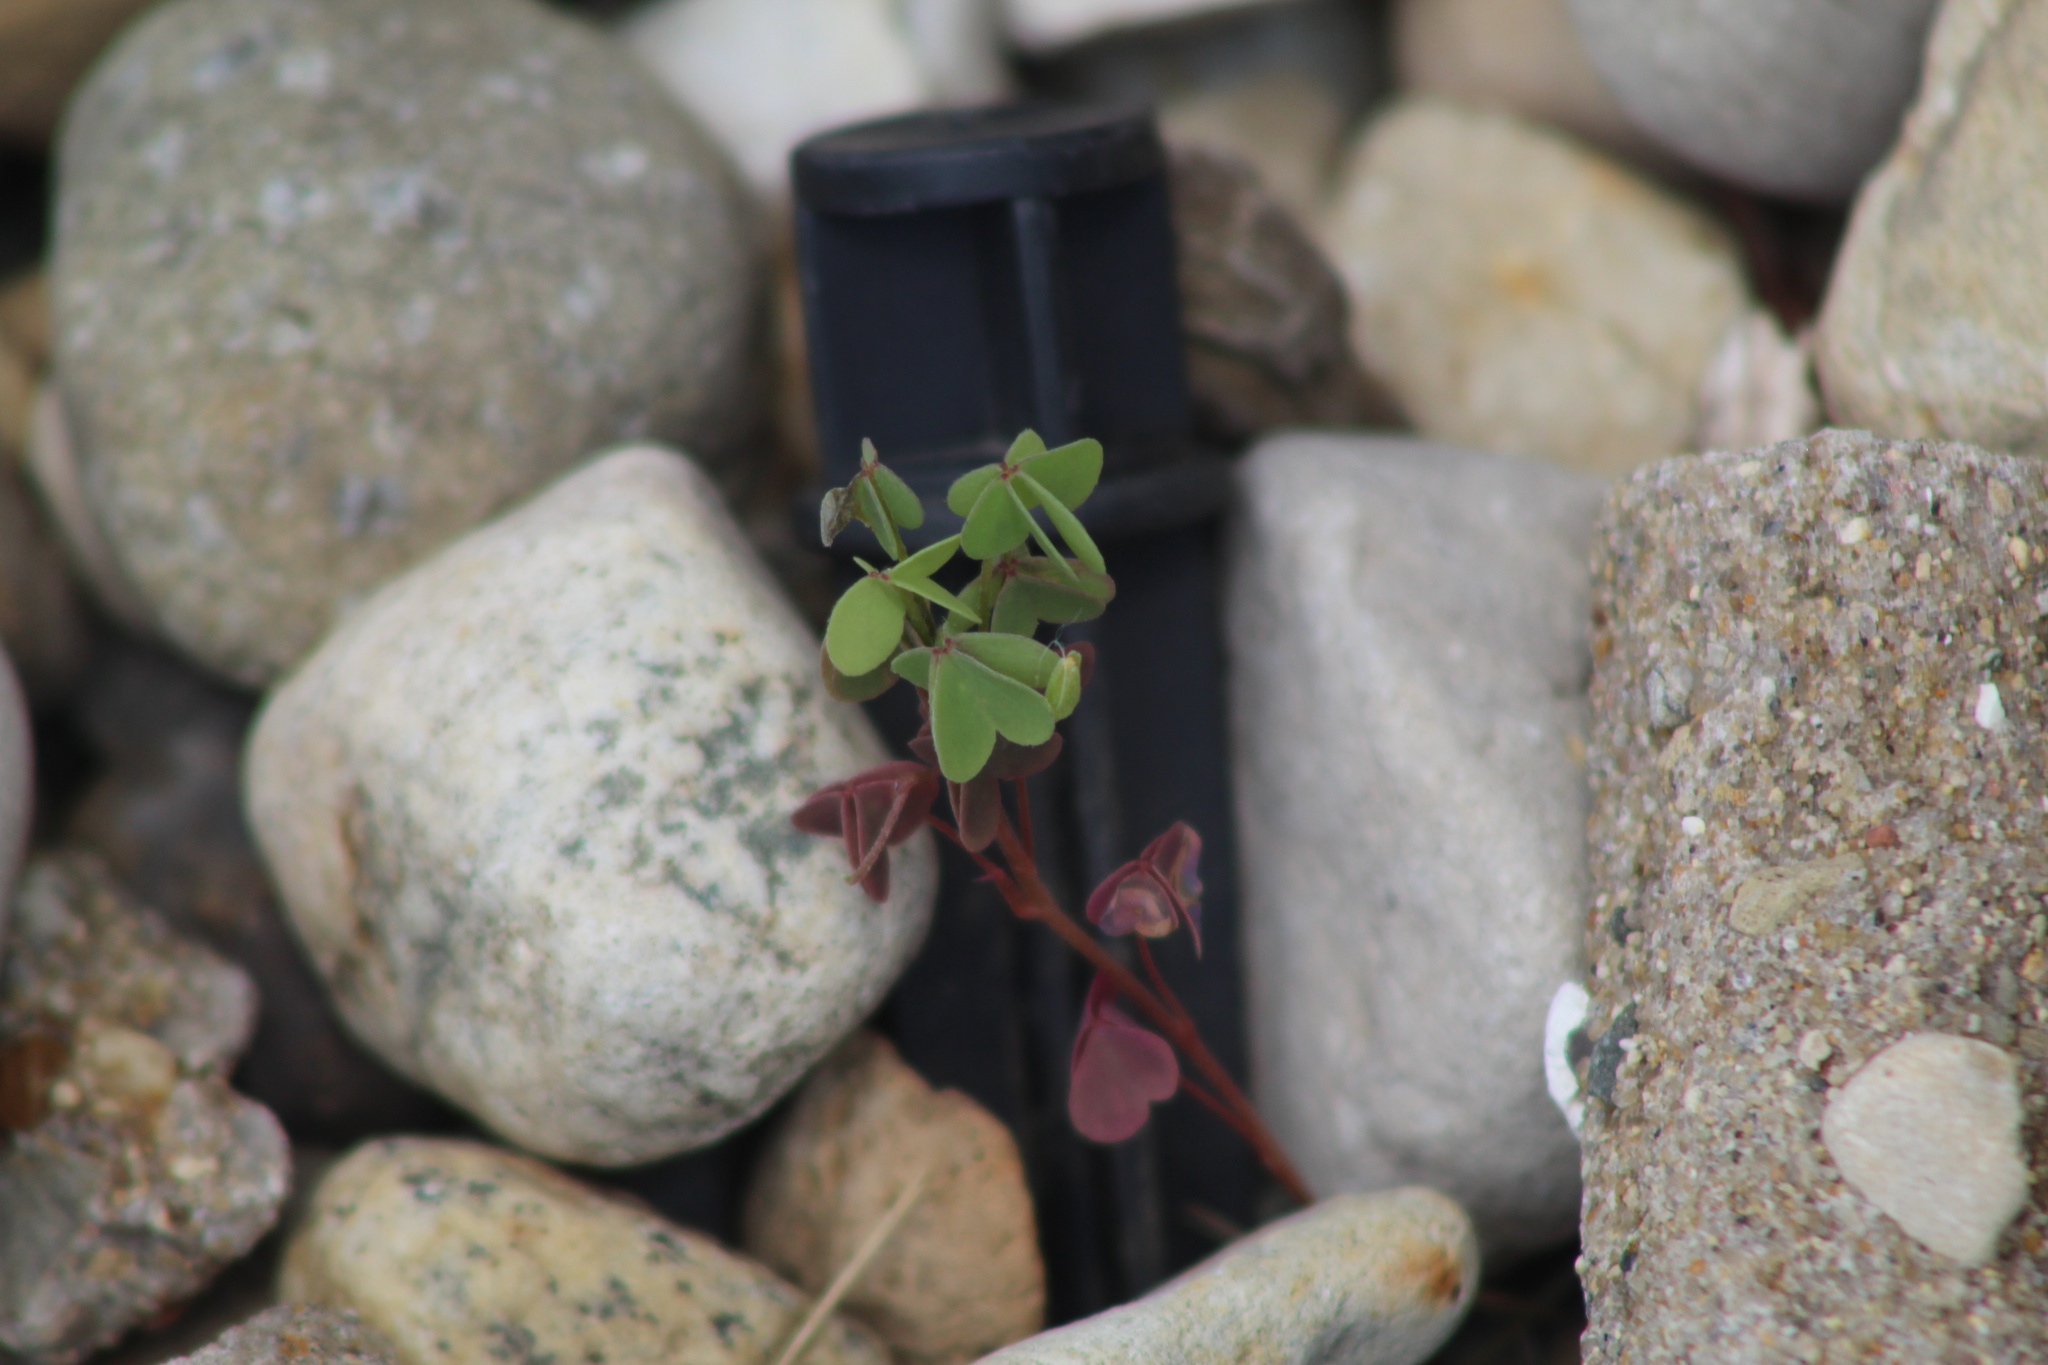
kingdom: Plantae
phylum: Tracheophyta
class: Magnoliopsida
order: Oxalidales
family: Oxalidaceae
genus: Oxalis
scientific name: Oxalis corniculata
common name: Procumbent yellow-sorrel
